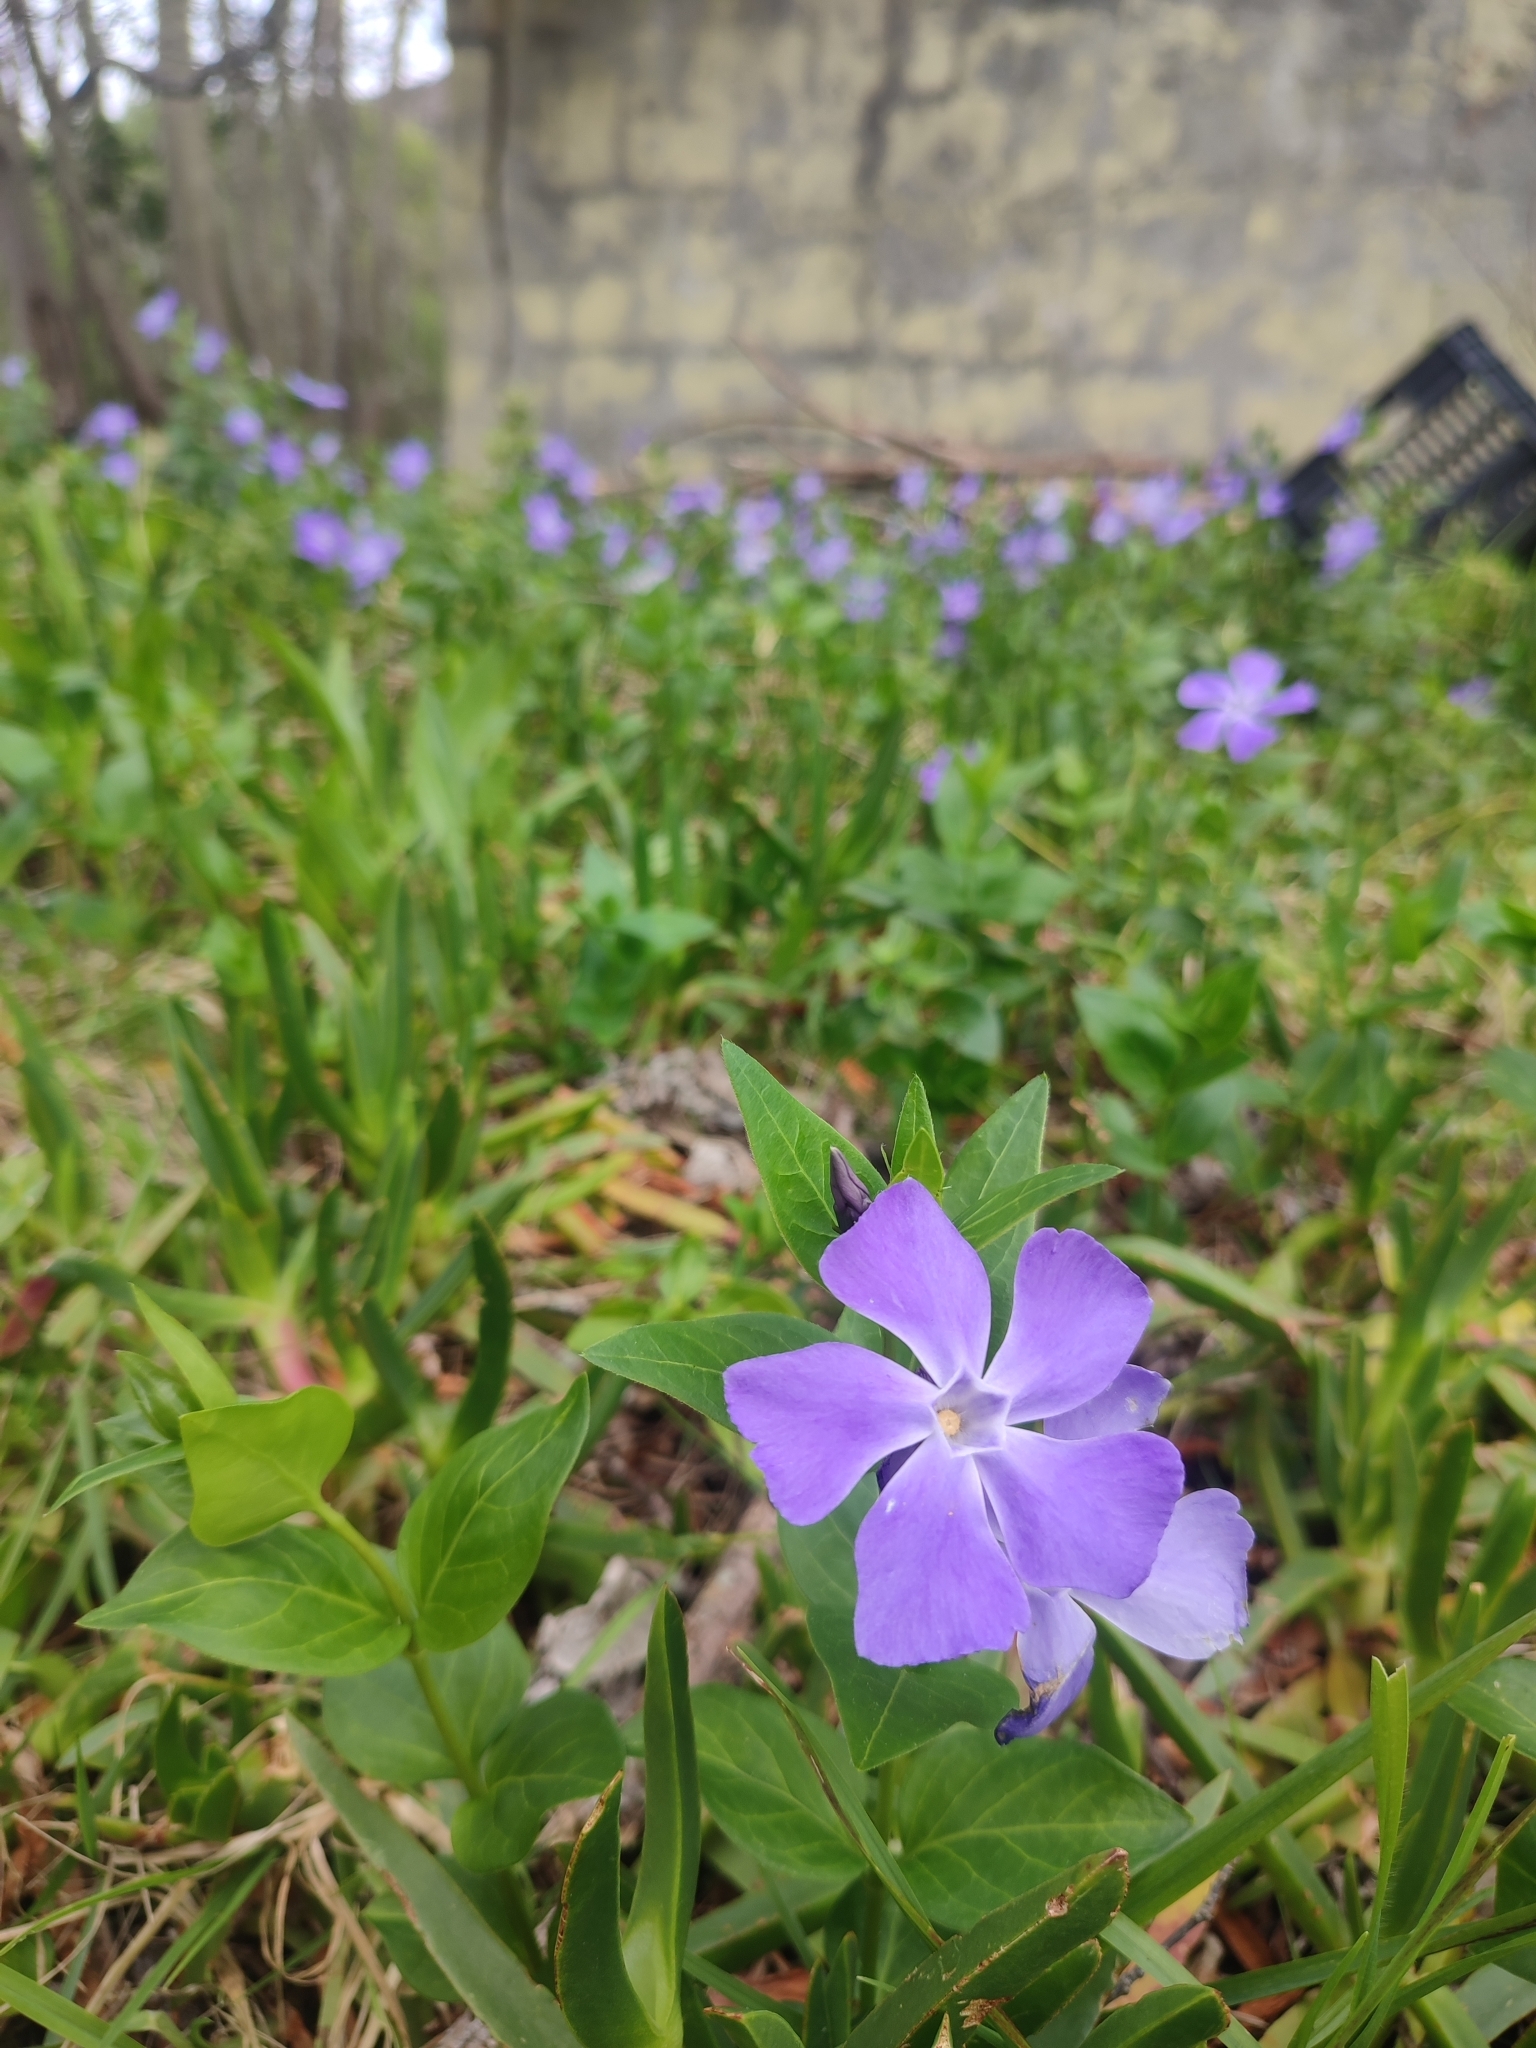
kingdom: Plantae
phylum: Tracheophyta
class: Magnoliopsida
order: Gentianales
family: Apocynaceae
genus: Vinca
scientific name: Vinca major
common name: Greater periwinkle
